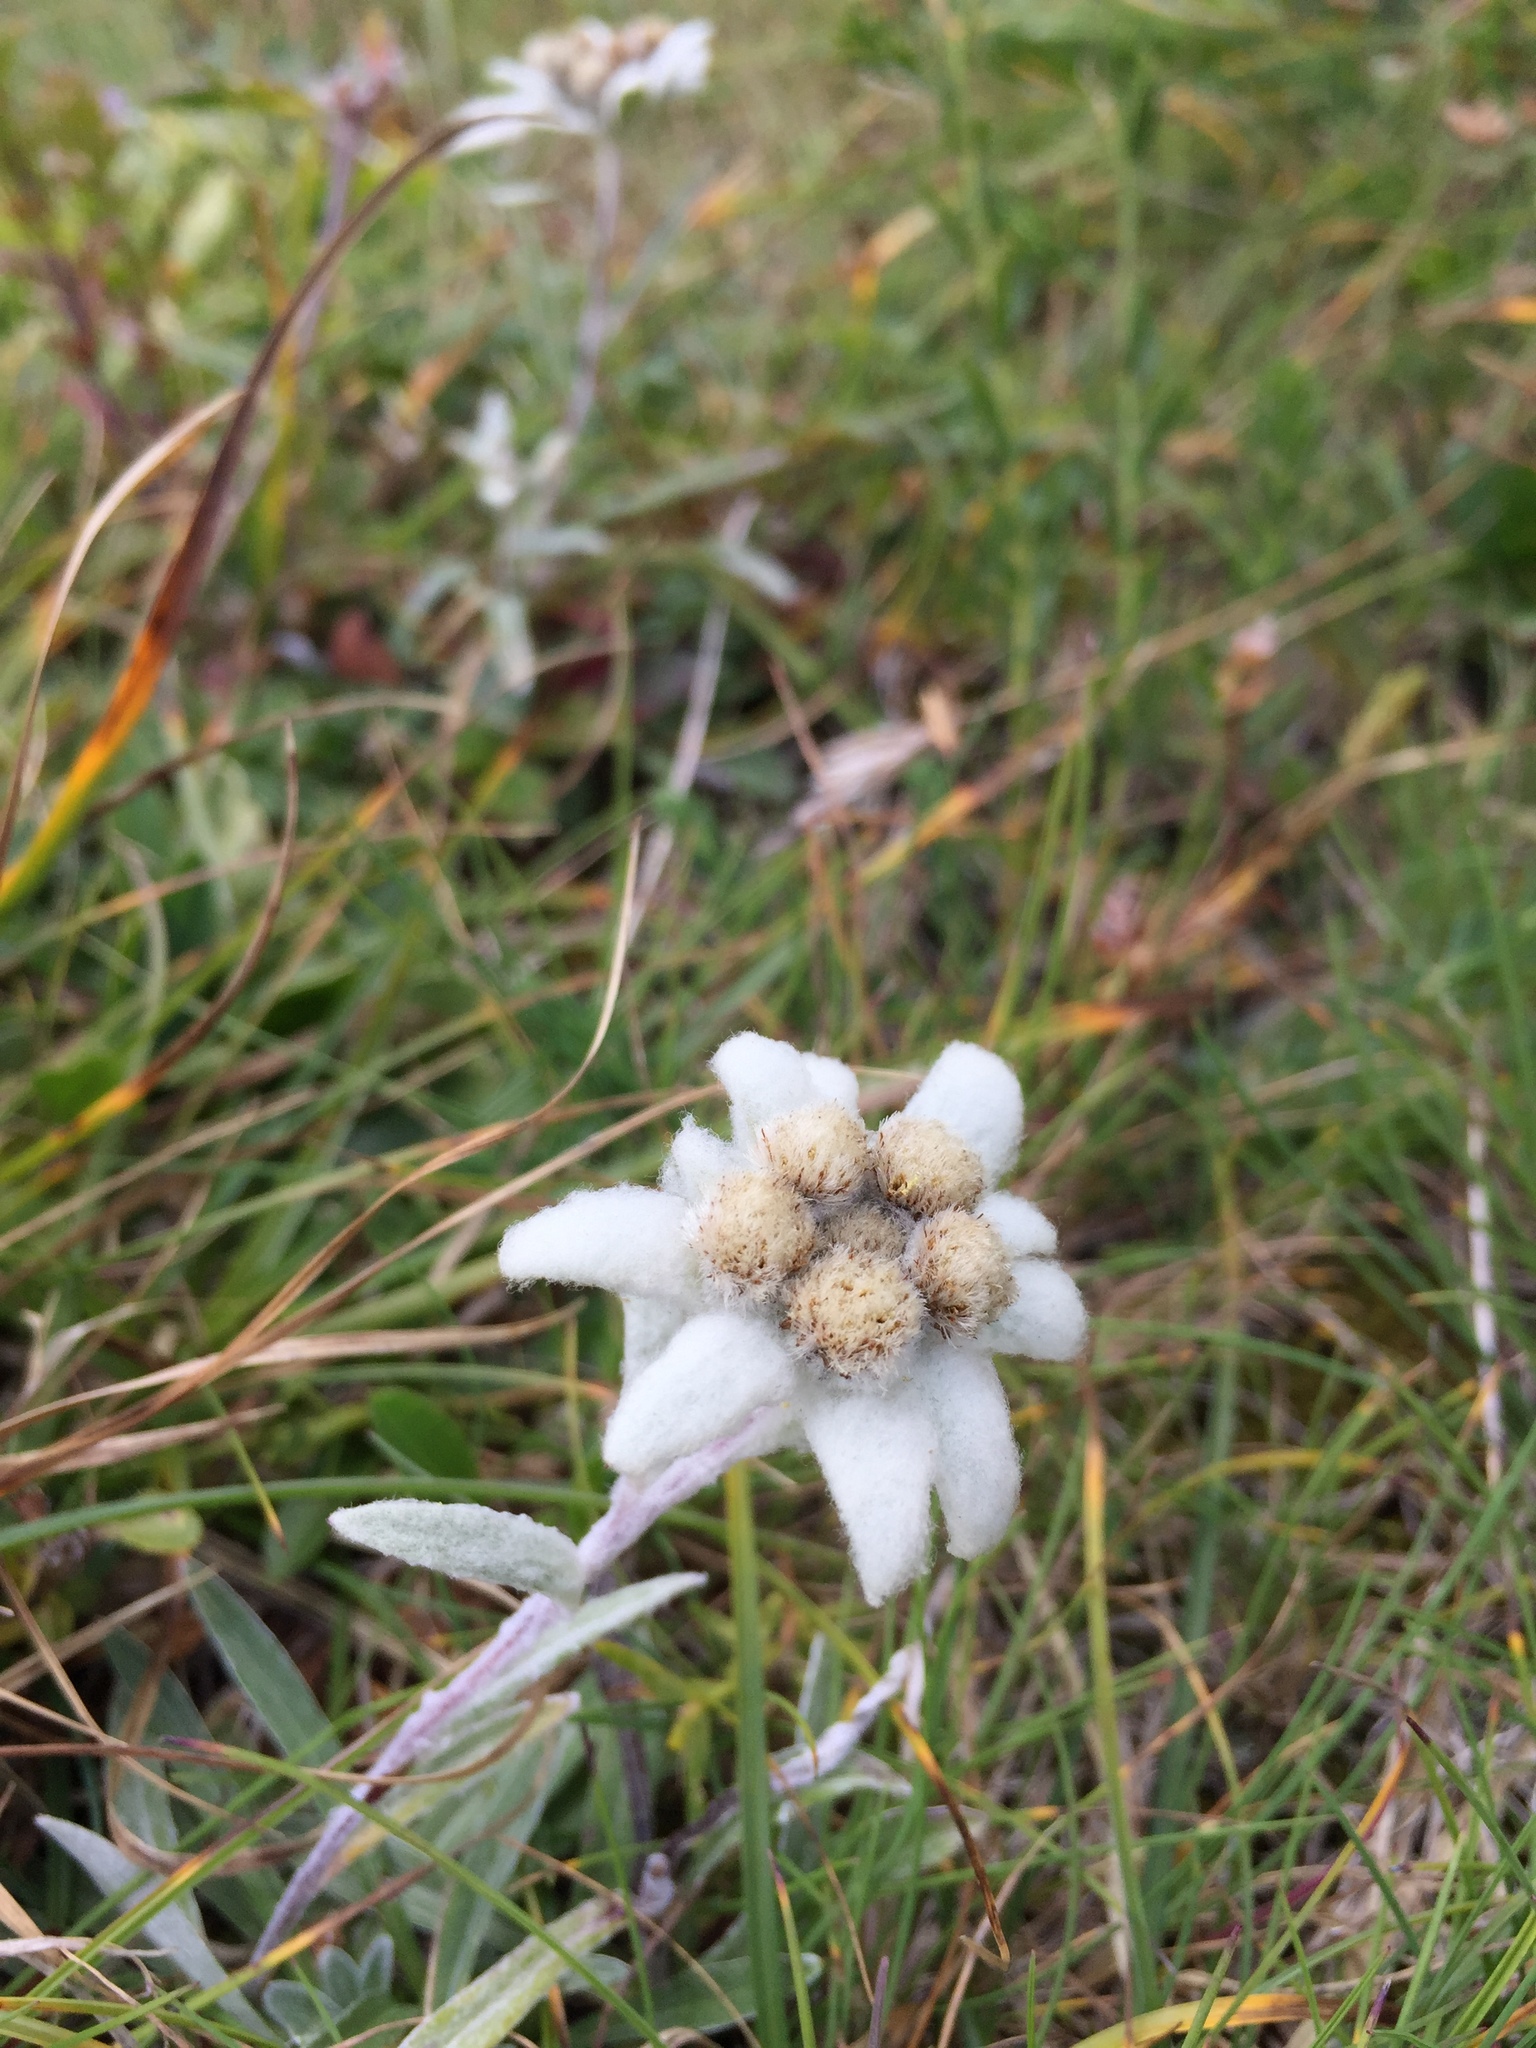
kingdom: Plantae
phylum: Tracheophyta
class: Magnoliopsida
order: Asterales
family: Asteraceae
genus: Leontopodium
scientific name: Leontopodium nivale
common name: Edelweiss
